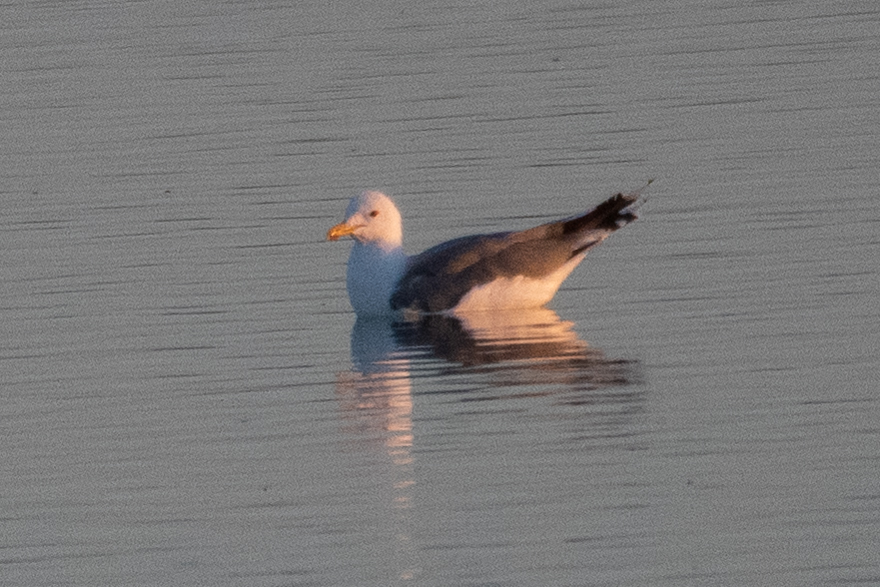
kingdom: Animalia
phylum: Chordata
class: Aves
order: Charadriiformes
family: Laridae
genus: Larus
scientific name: Larus californicus
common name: California gull
